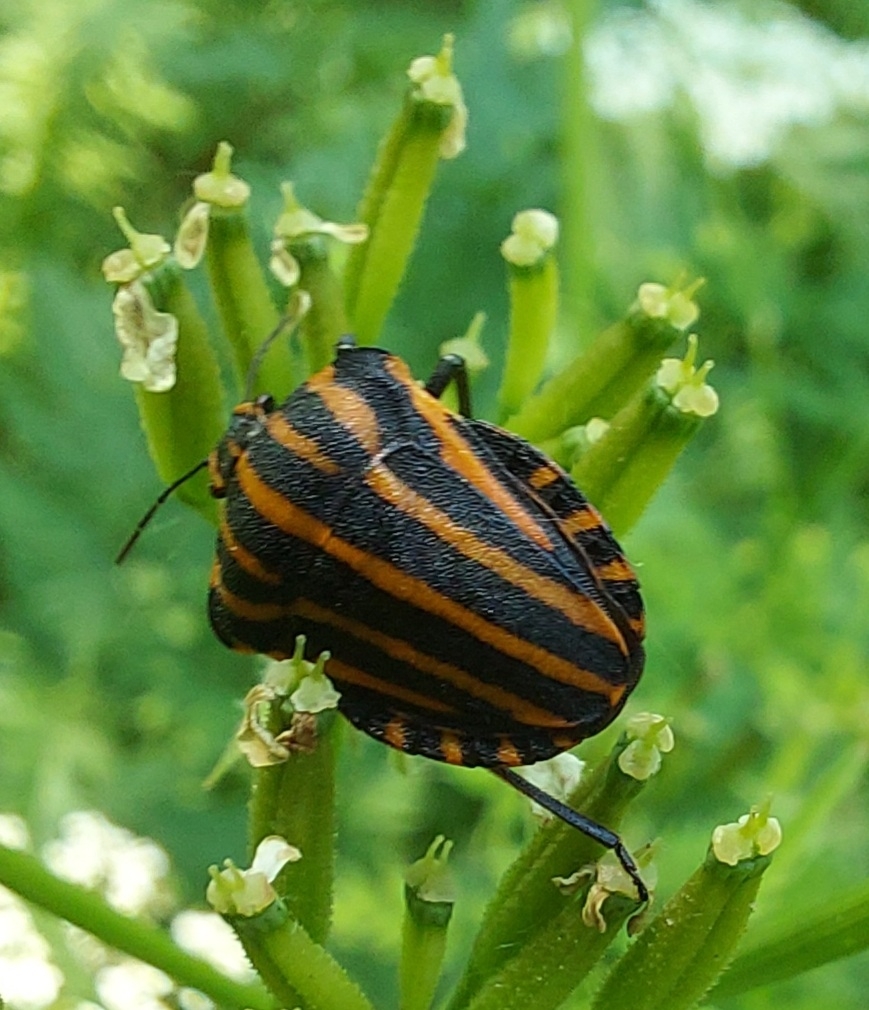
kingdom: Animalia
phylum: Arthropoda
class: Insecta
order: Hemiptera
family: Pentatomidae
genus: Graphosoma
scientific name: Graphosoma italicum
